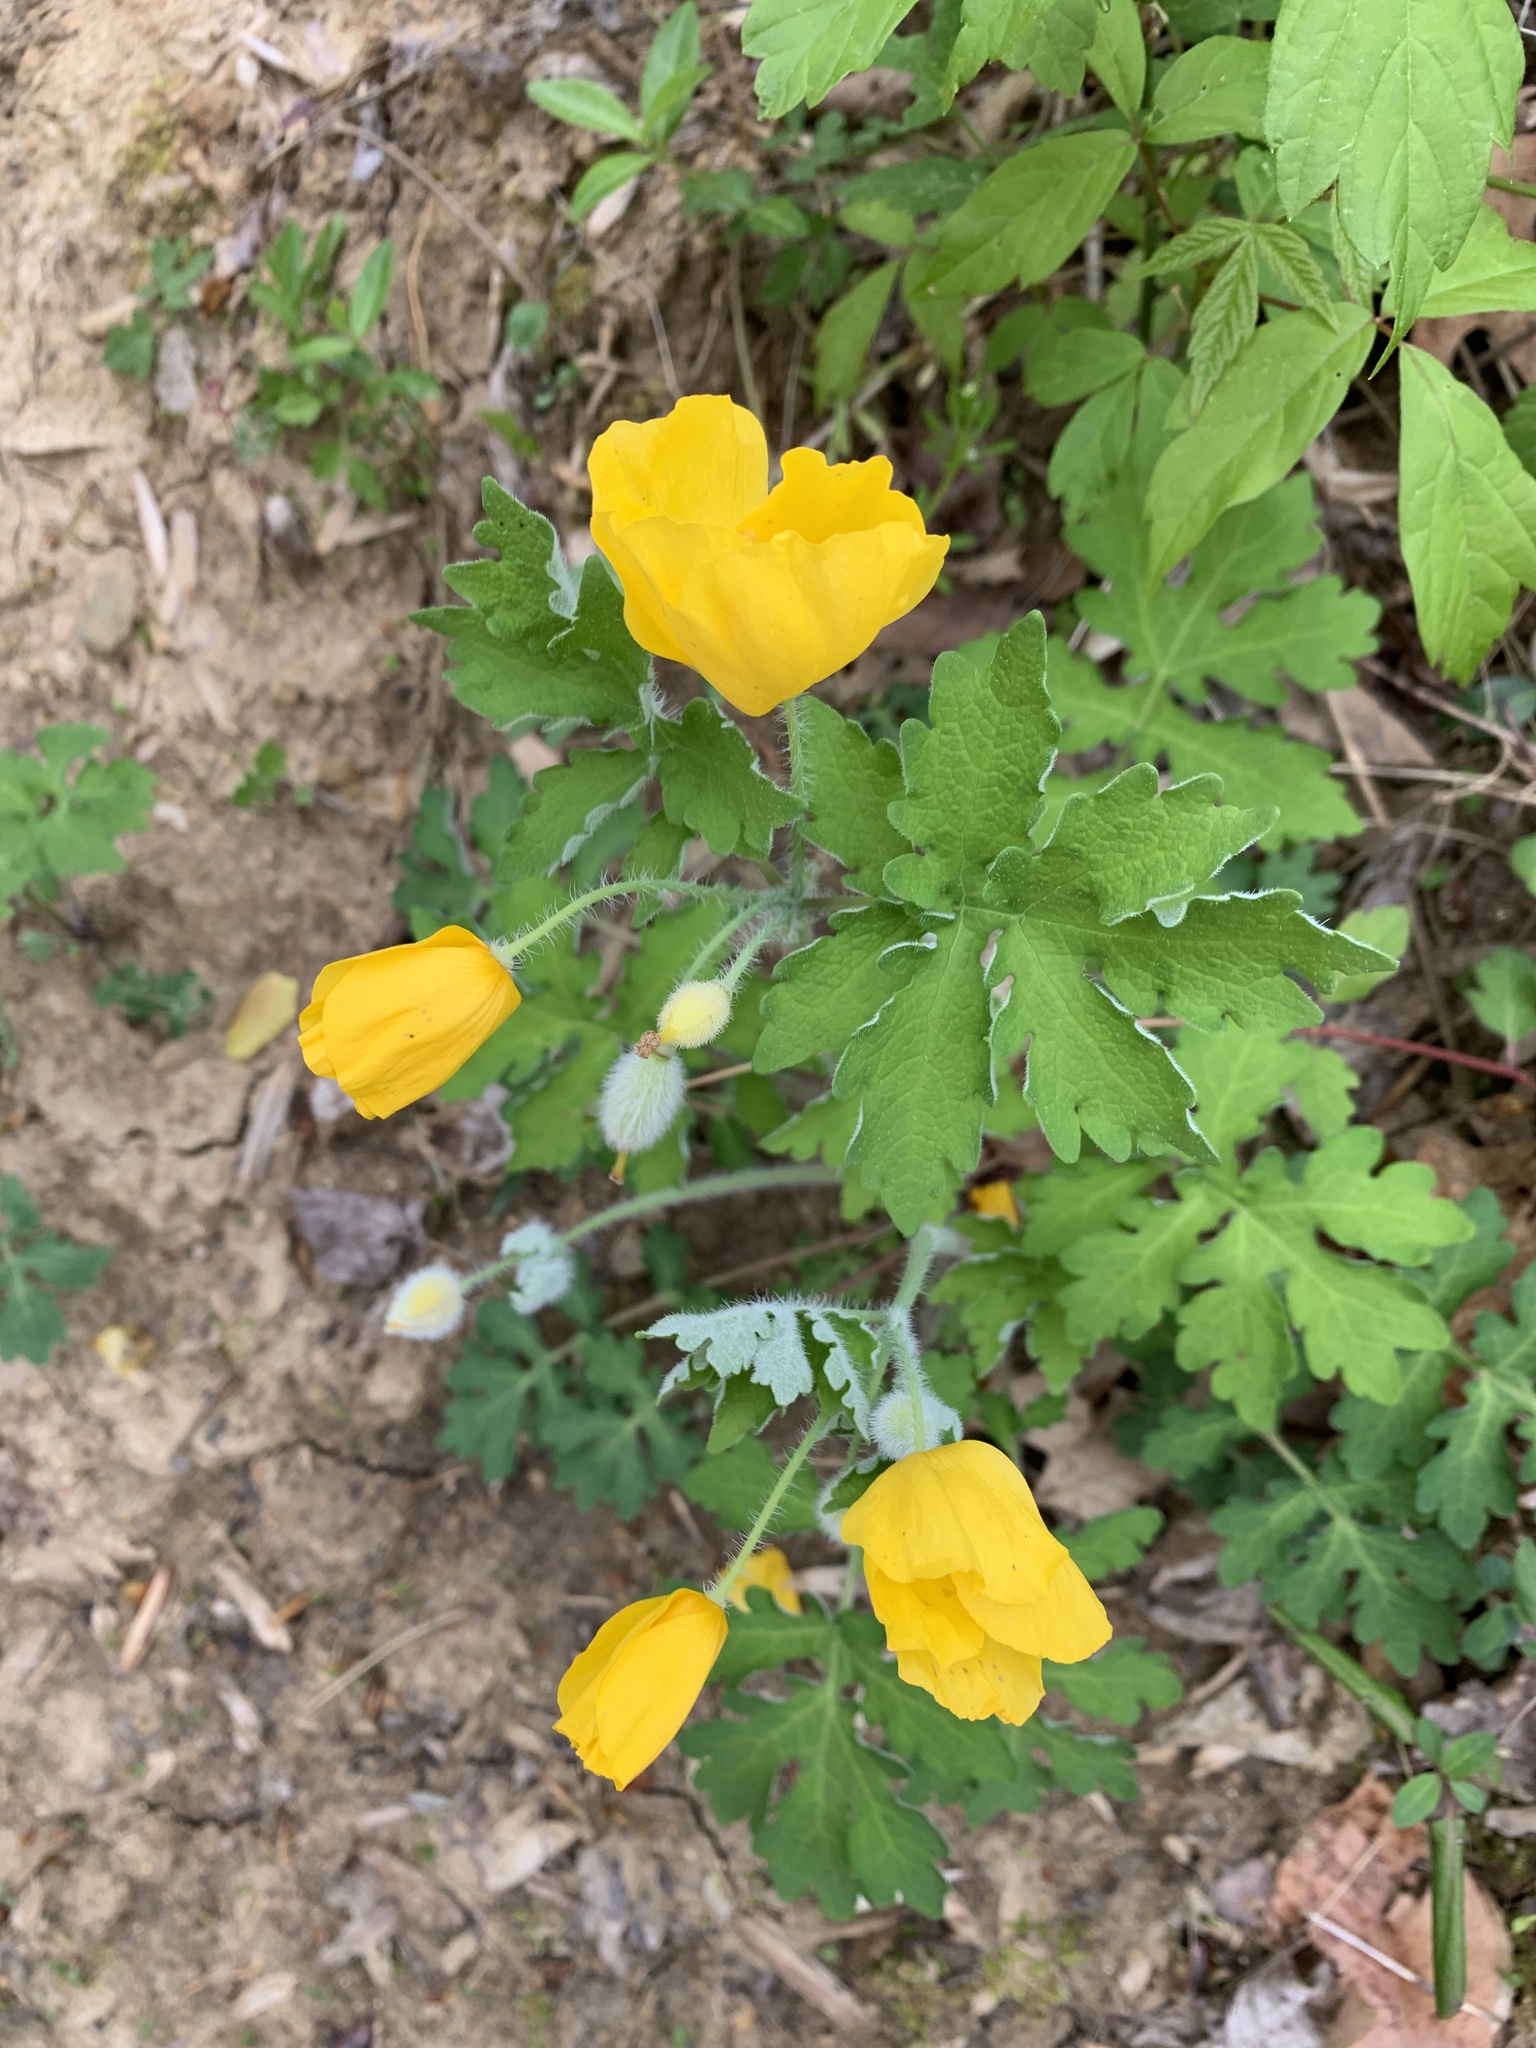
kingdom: Plantae
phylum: Tracheophyta
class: Magnoliopsida
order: Ranunculales
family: Papaveraceae
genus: Stylophorum
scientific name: Stylophorum diphyllum
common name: Celandine poppy
